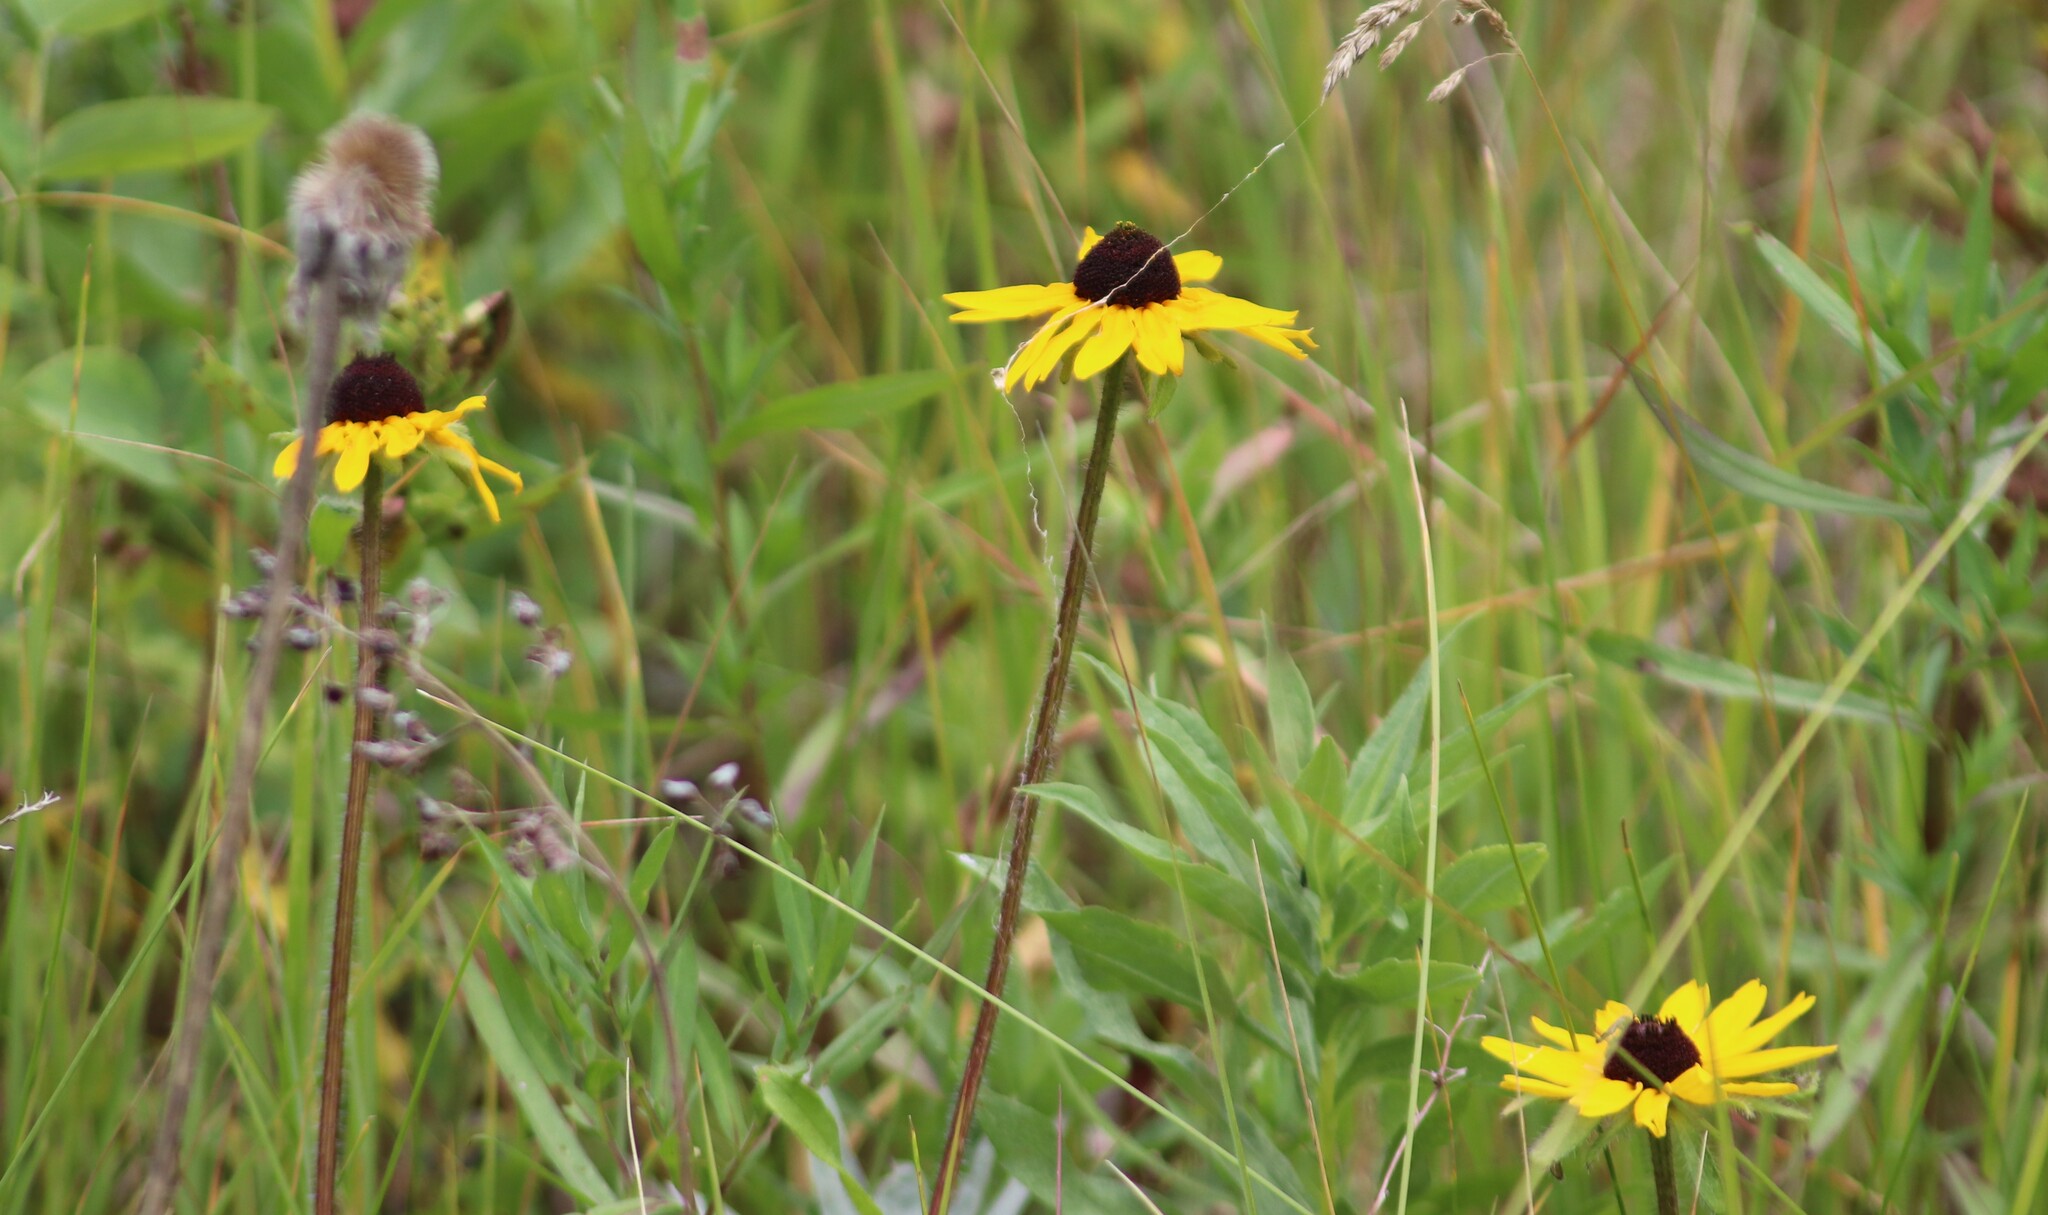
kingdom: Plantae
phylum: Tracheophyta
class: Magnoliopsida
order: Asterales
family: Asteraceae
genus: Rudbeckia
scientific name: Rudbeckia hirta
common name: Black-eyed-susan
